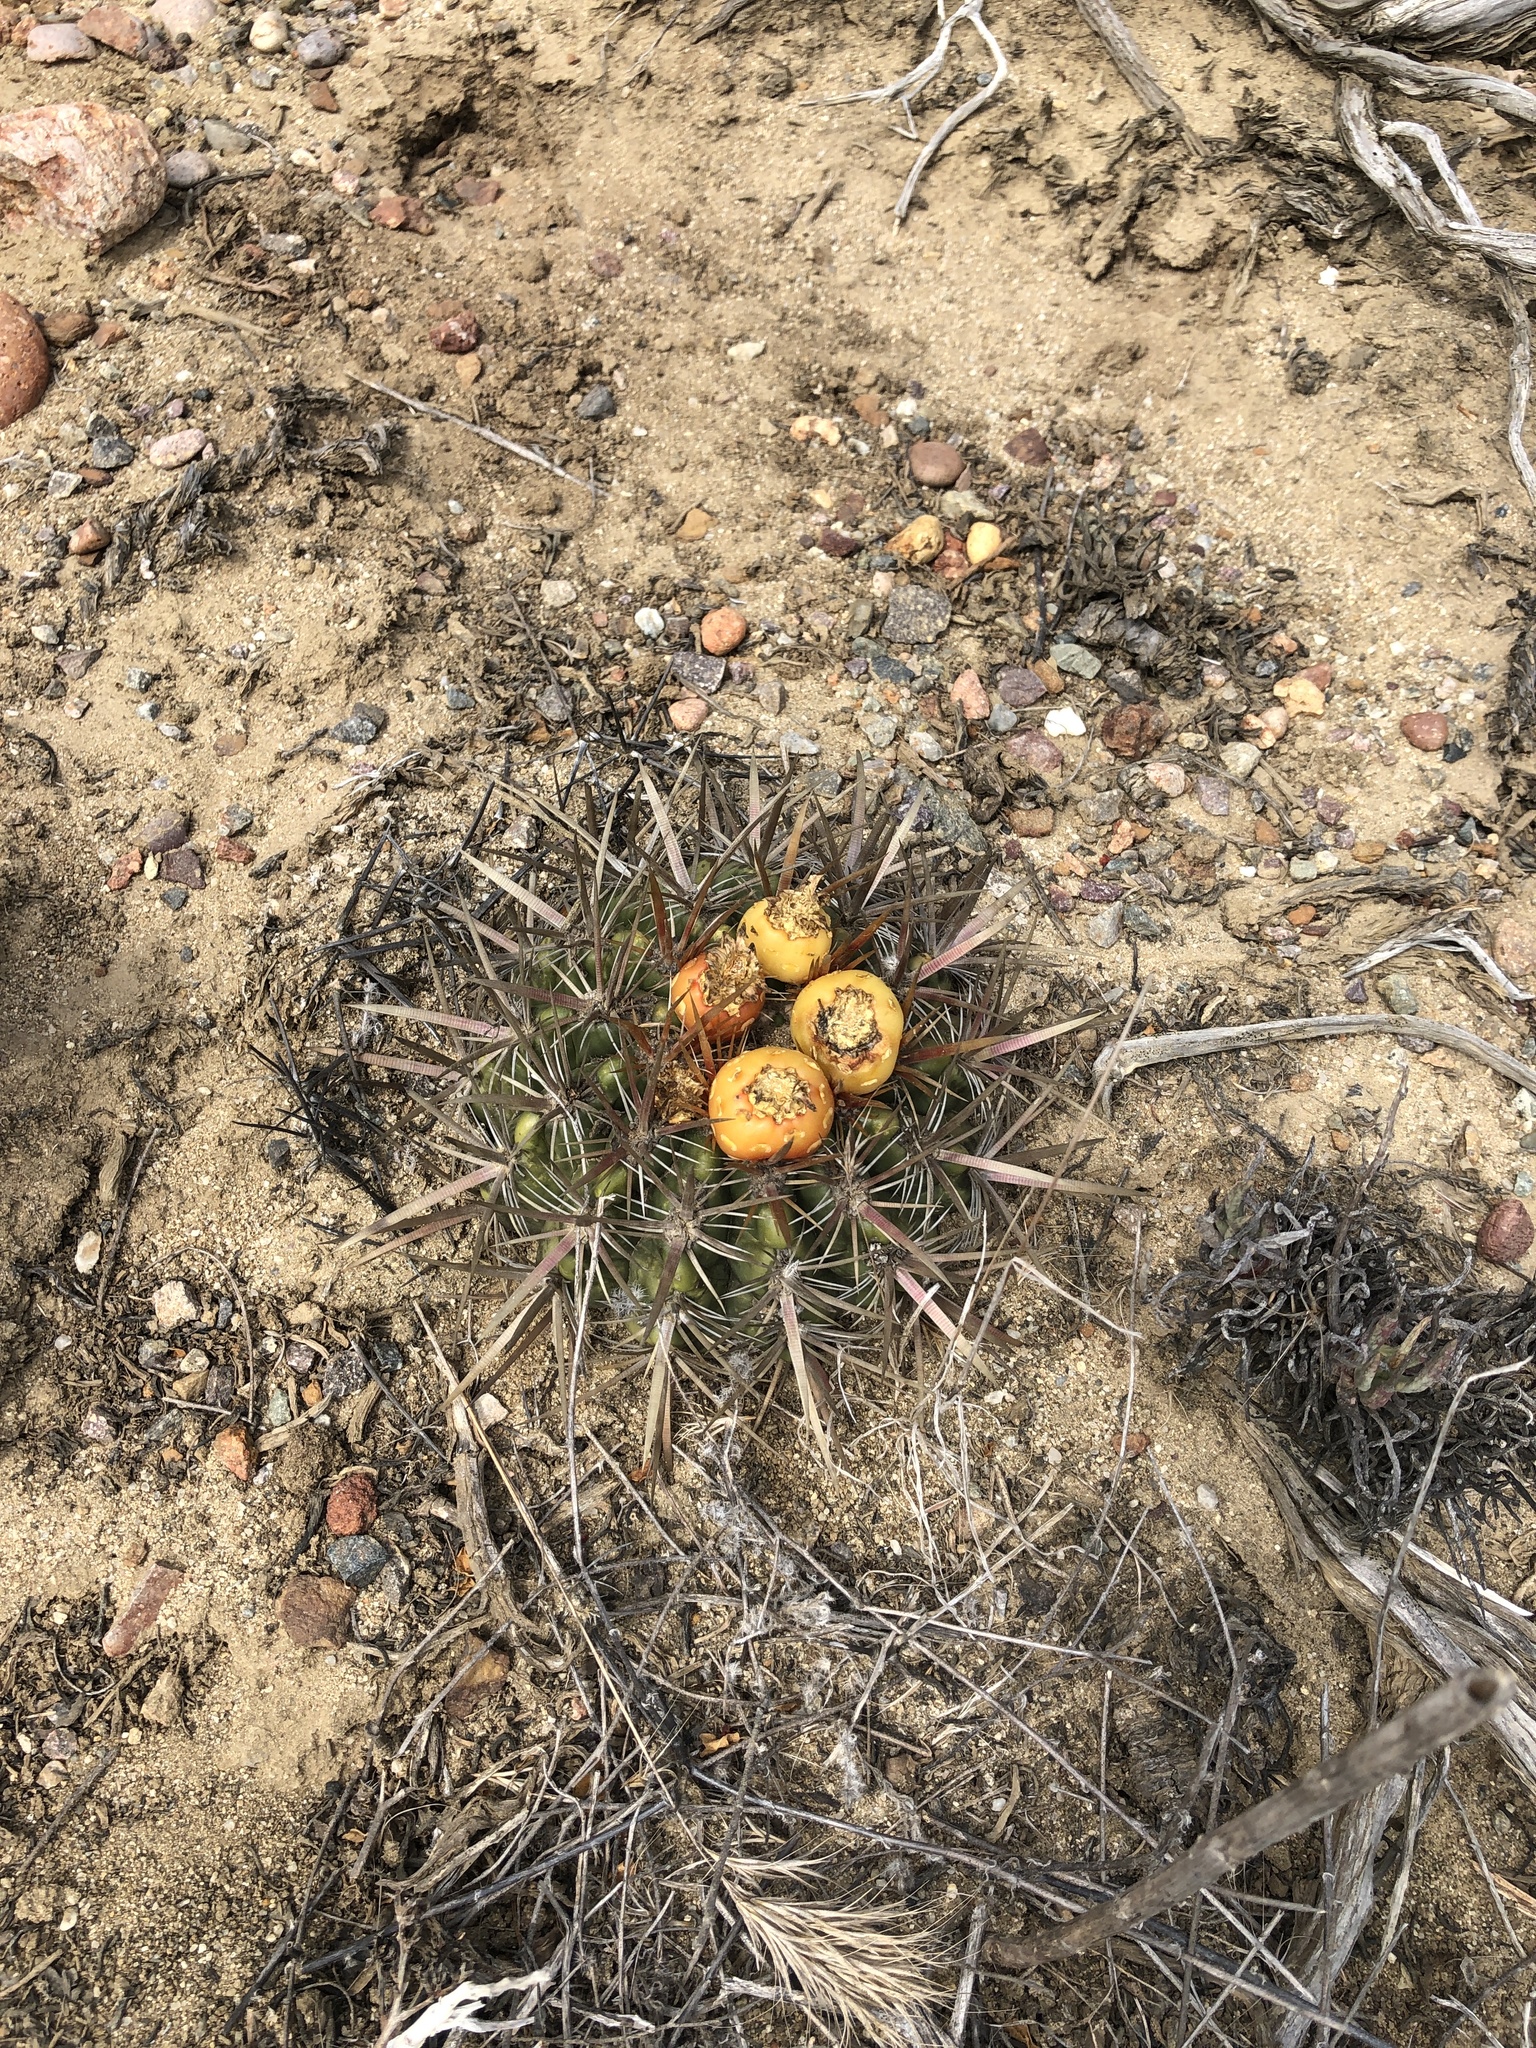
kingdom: Plantae
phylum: Tracheophyta
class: Magnoliopsida
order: Caryophyllales
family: Cactaceae
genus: Ferocactus
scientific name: Ferocactus viridescens
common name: San diego barrel cactus
